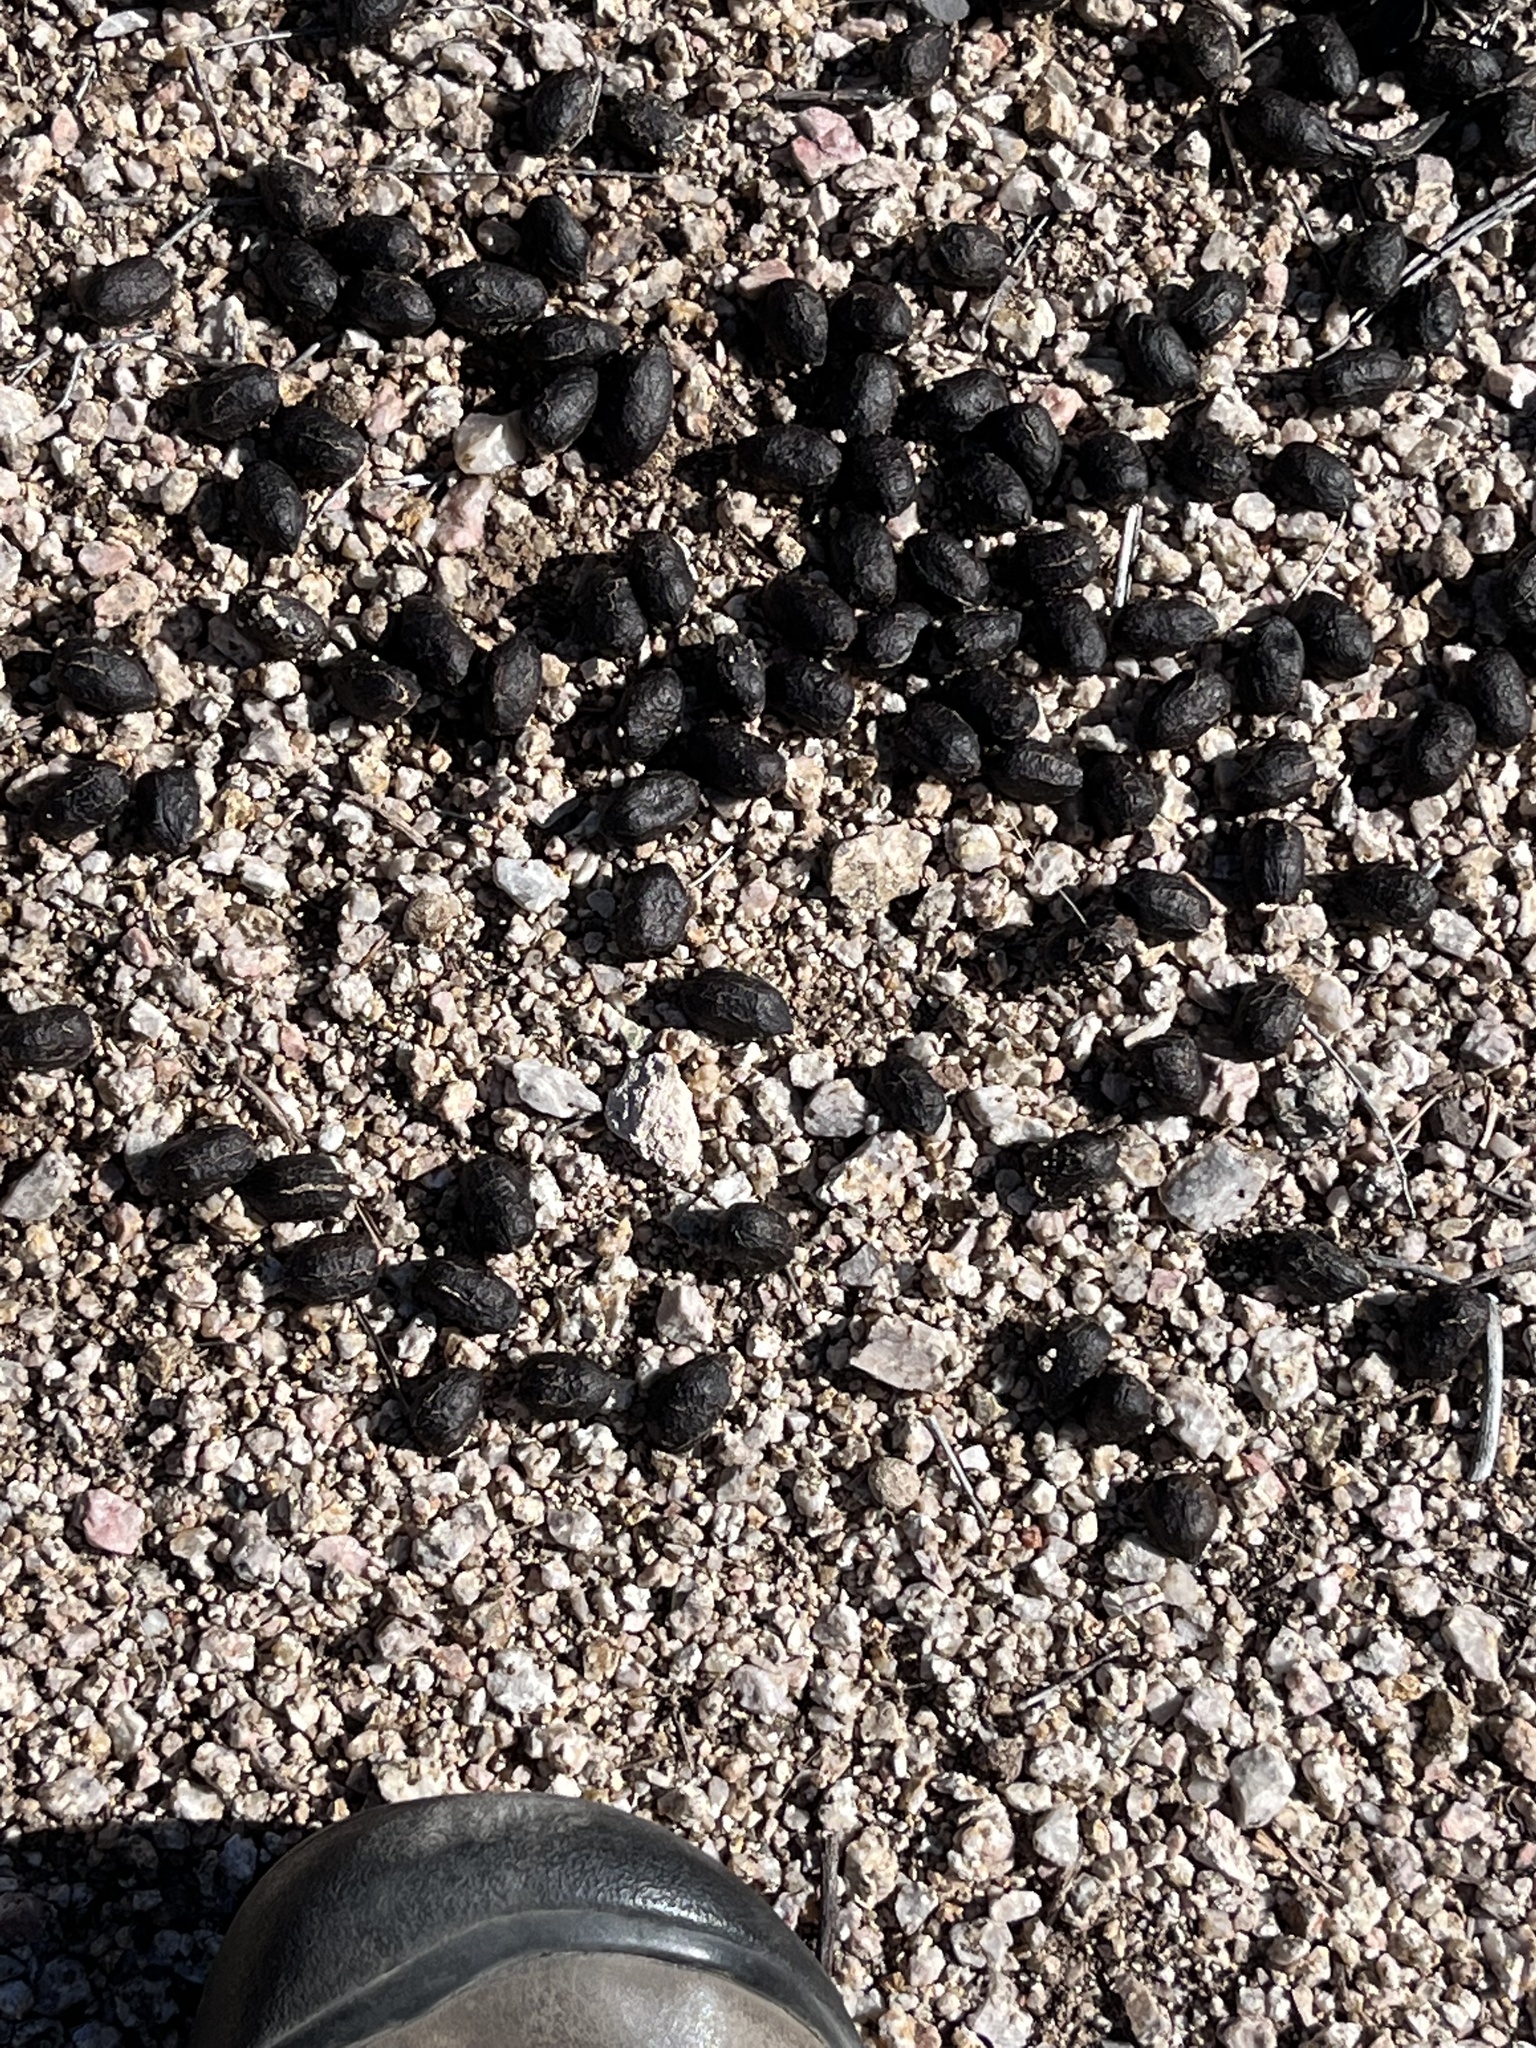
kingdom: Animalia
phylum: Chordata
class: Mammalia
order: Artiodactyla
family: Cervidae
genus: Odocoileus
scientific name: Odocoileus hemionus
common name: Mule deer
